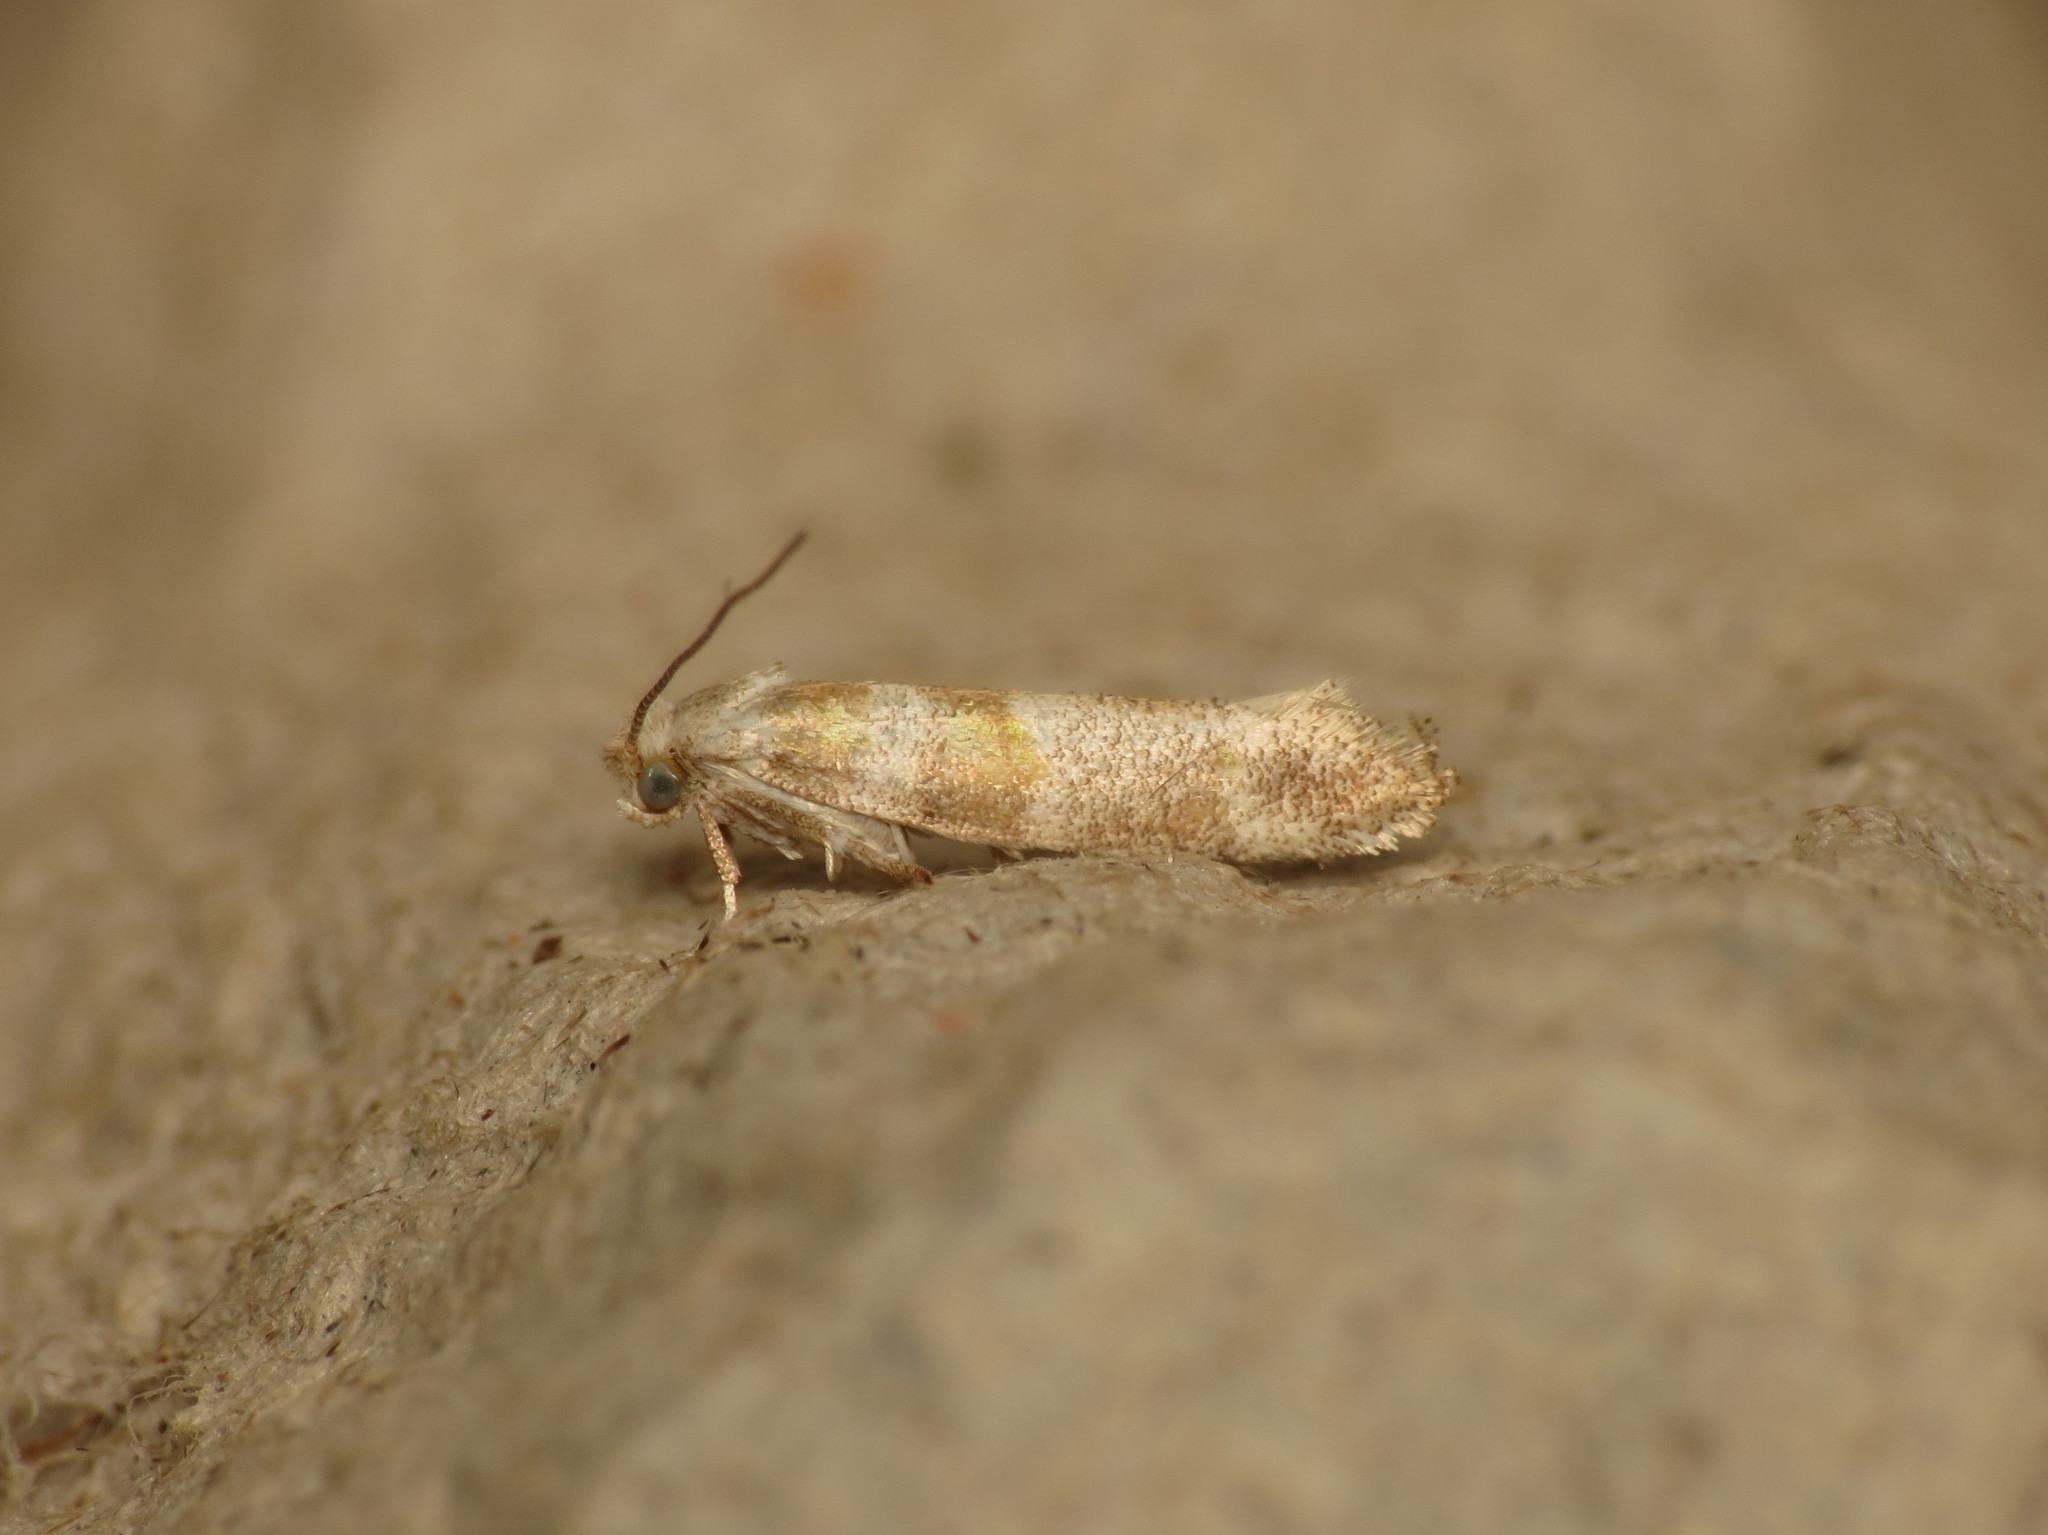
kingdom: Animalia
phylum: Arthropoda
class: Insecta
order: Lepidoptera
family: Yponomeutidae
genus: Cedestis
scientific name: Cedestis gysseleniella
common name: Gold pine ermel
